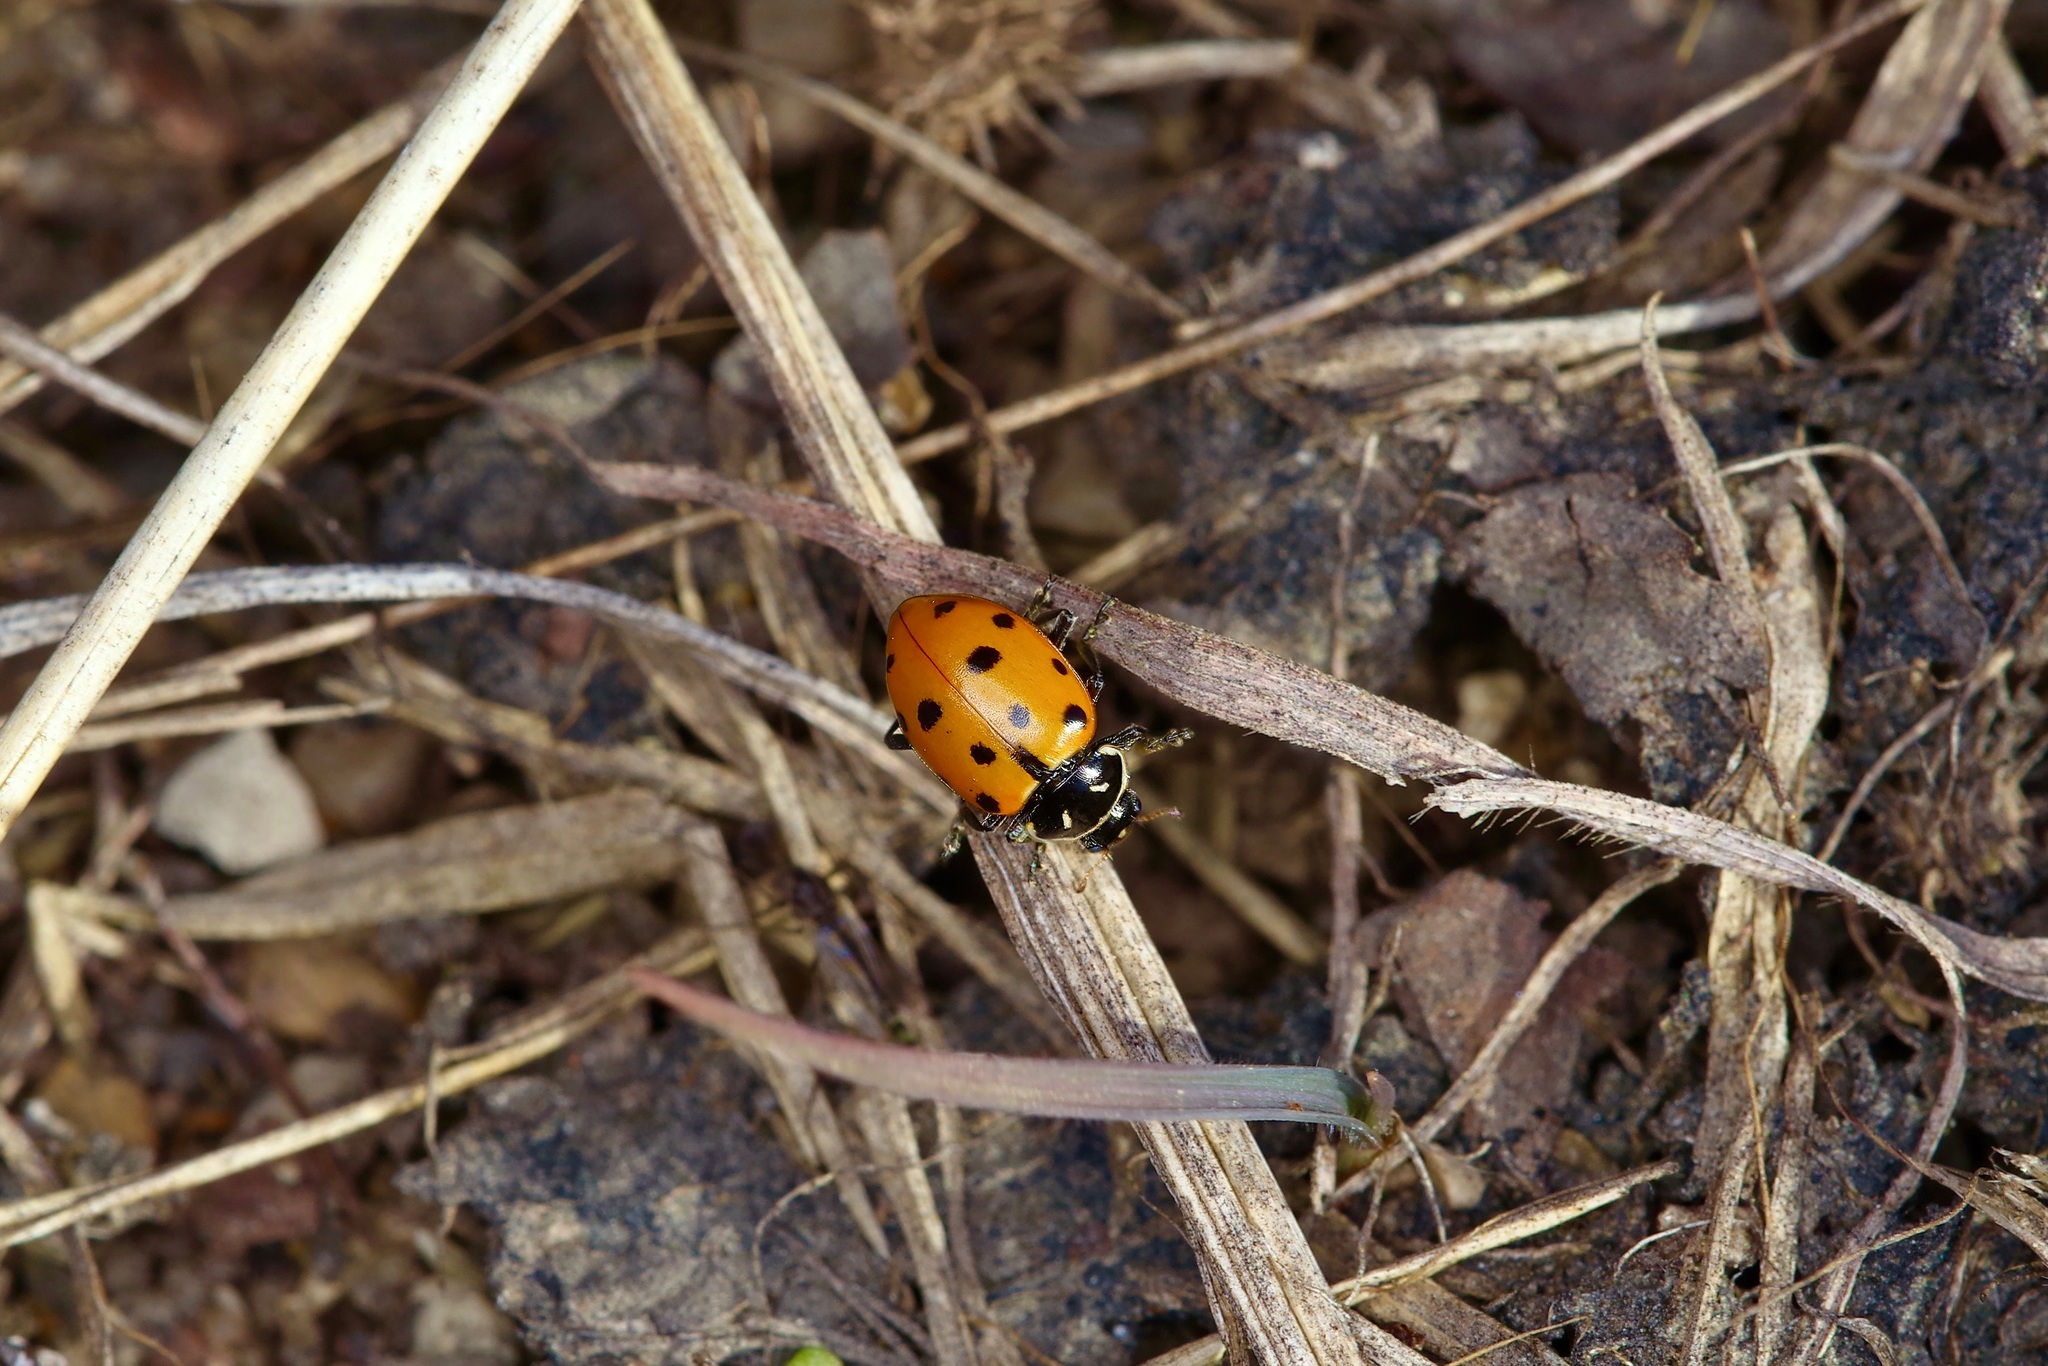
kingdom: Animalia
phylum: Arthropoda
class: Insecta
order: Coleoptera
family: Coccinellidae
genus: Hippodamia
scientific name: Hippodamia convergens
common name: Convergent lady beetle
